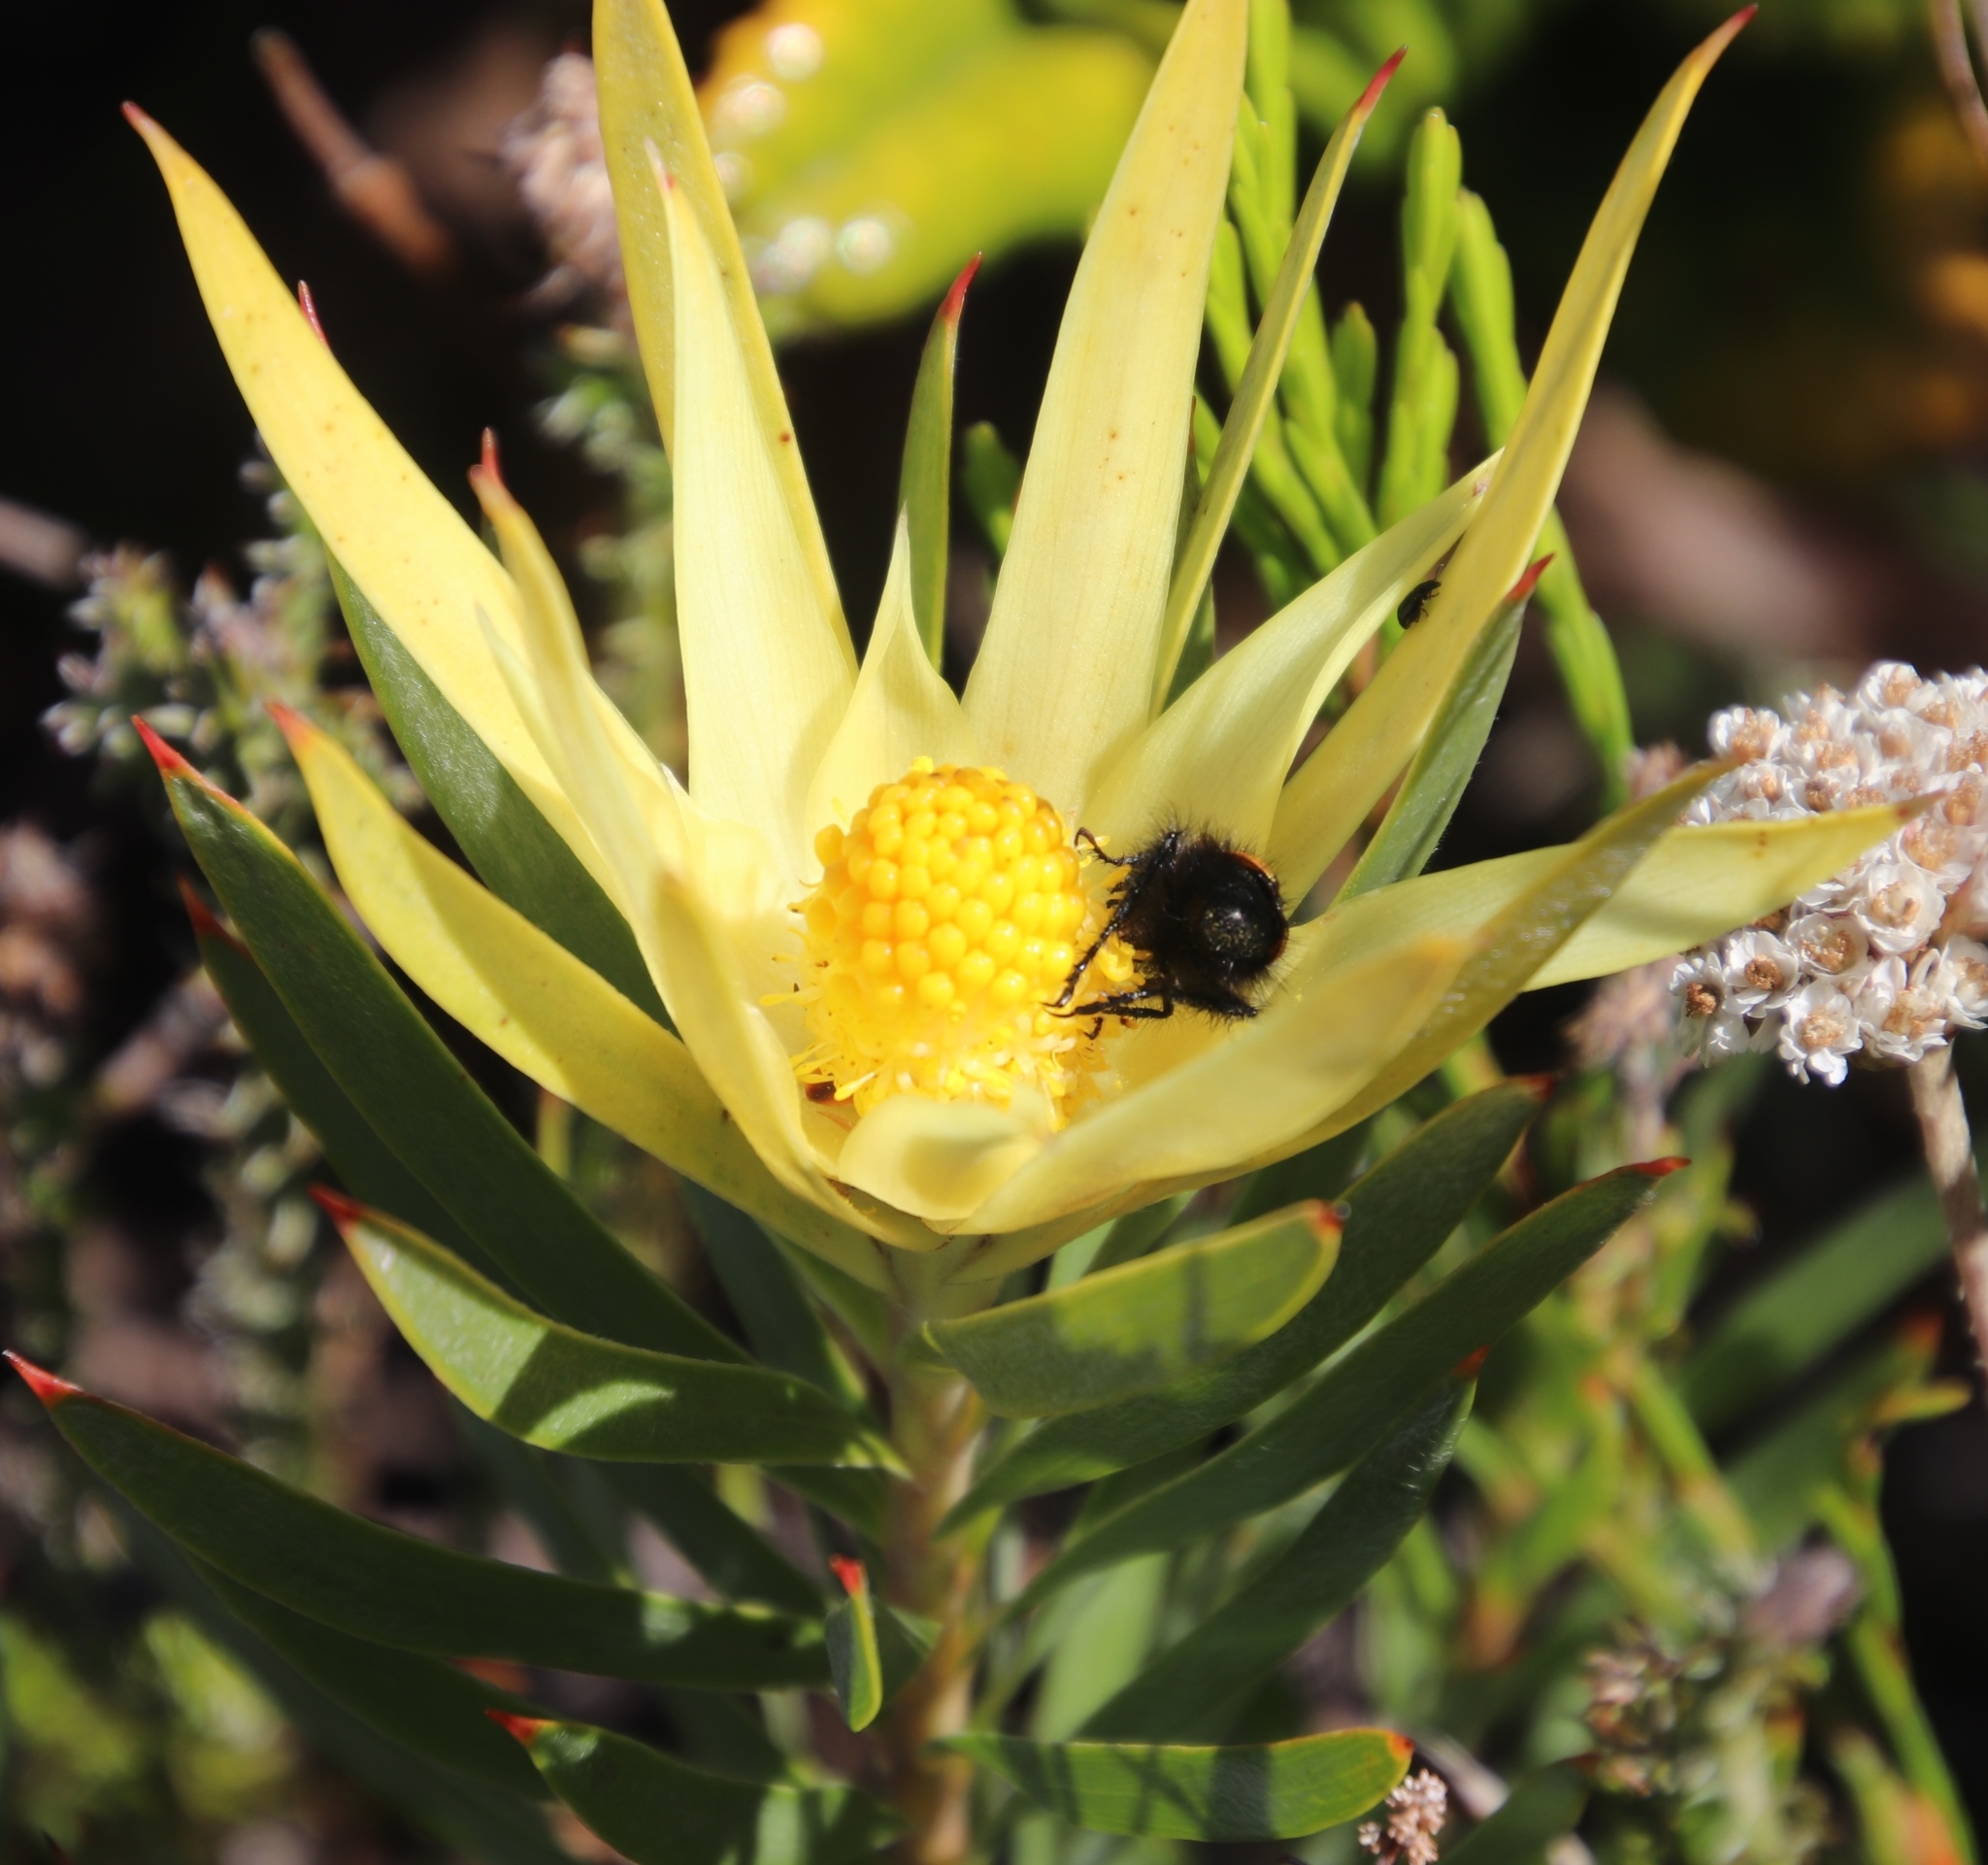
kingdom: Plantae
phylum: Tracheophyta
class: Magnoliopsida
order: Proteales
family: Proteaceae
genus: Leucadendron
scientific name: Leucadendron xanthoconus
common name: Sickle-leaf conebush
